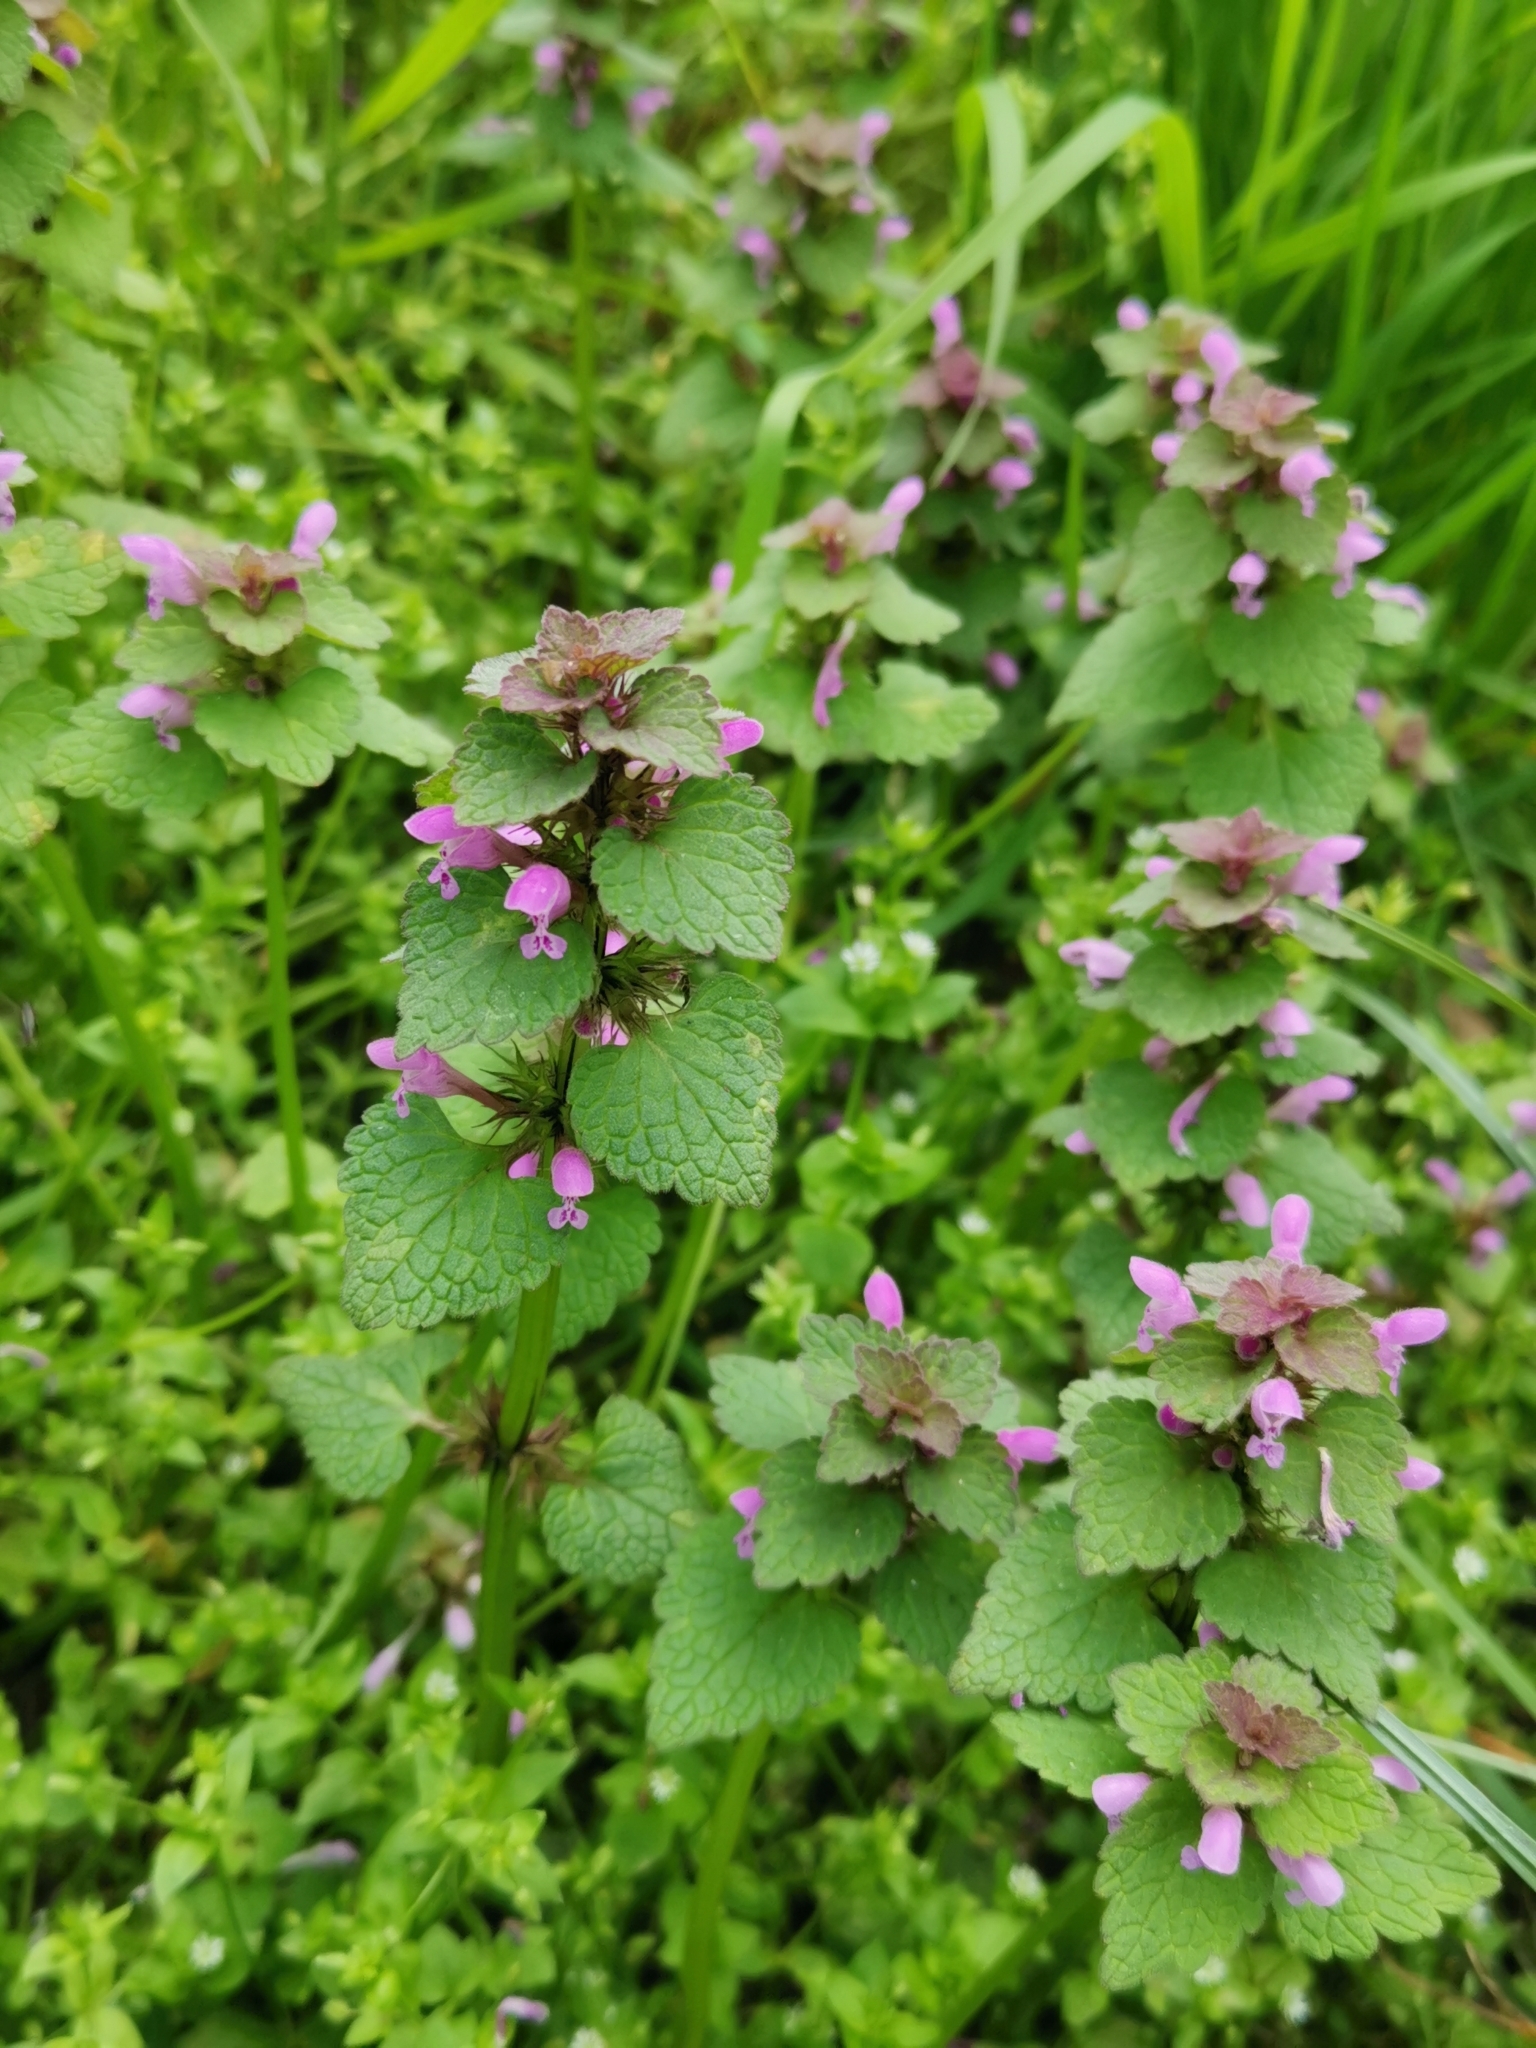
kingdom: Plantae
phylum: Tracheophyta
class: Magnoliopsida
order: Lamiales
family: Lamiaceae
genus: Lamium
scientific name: Lamium purpureum
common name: Red dead-nettle
